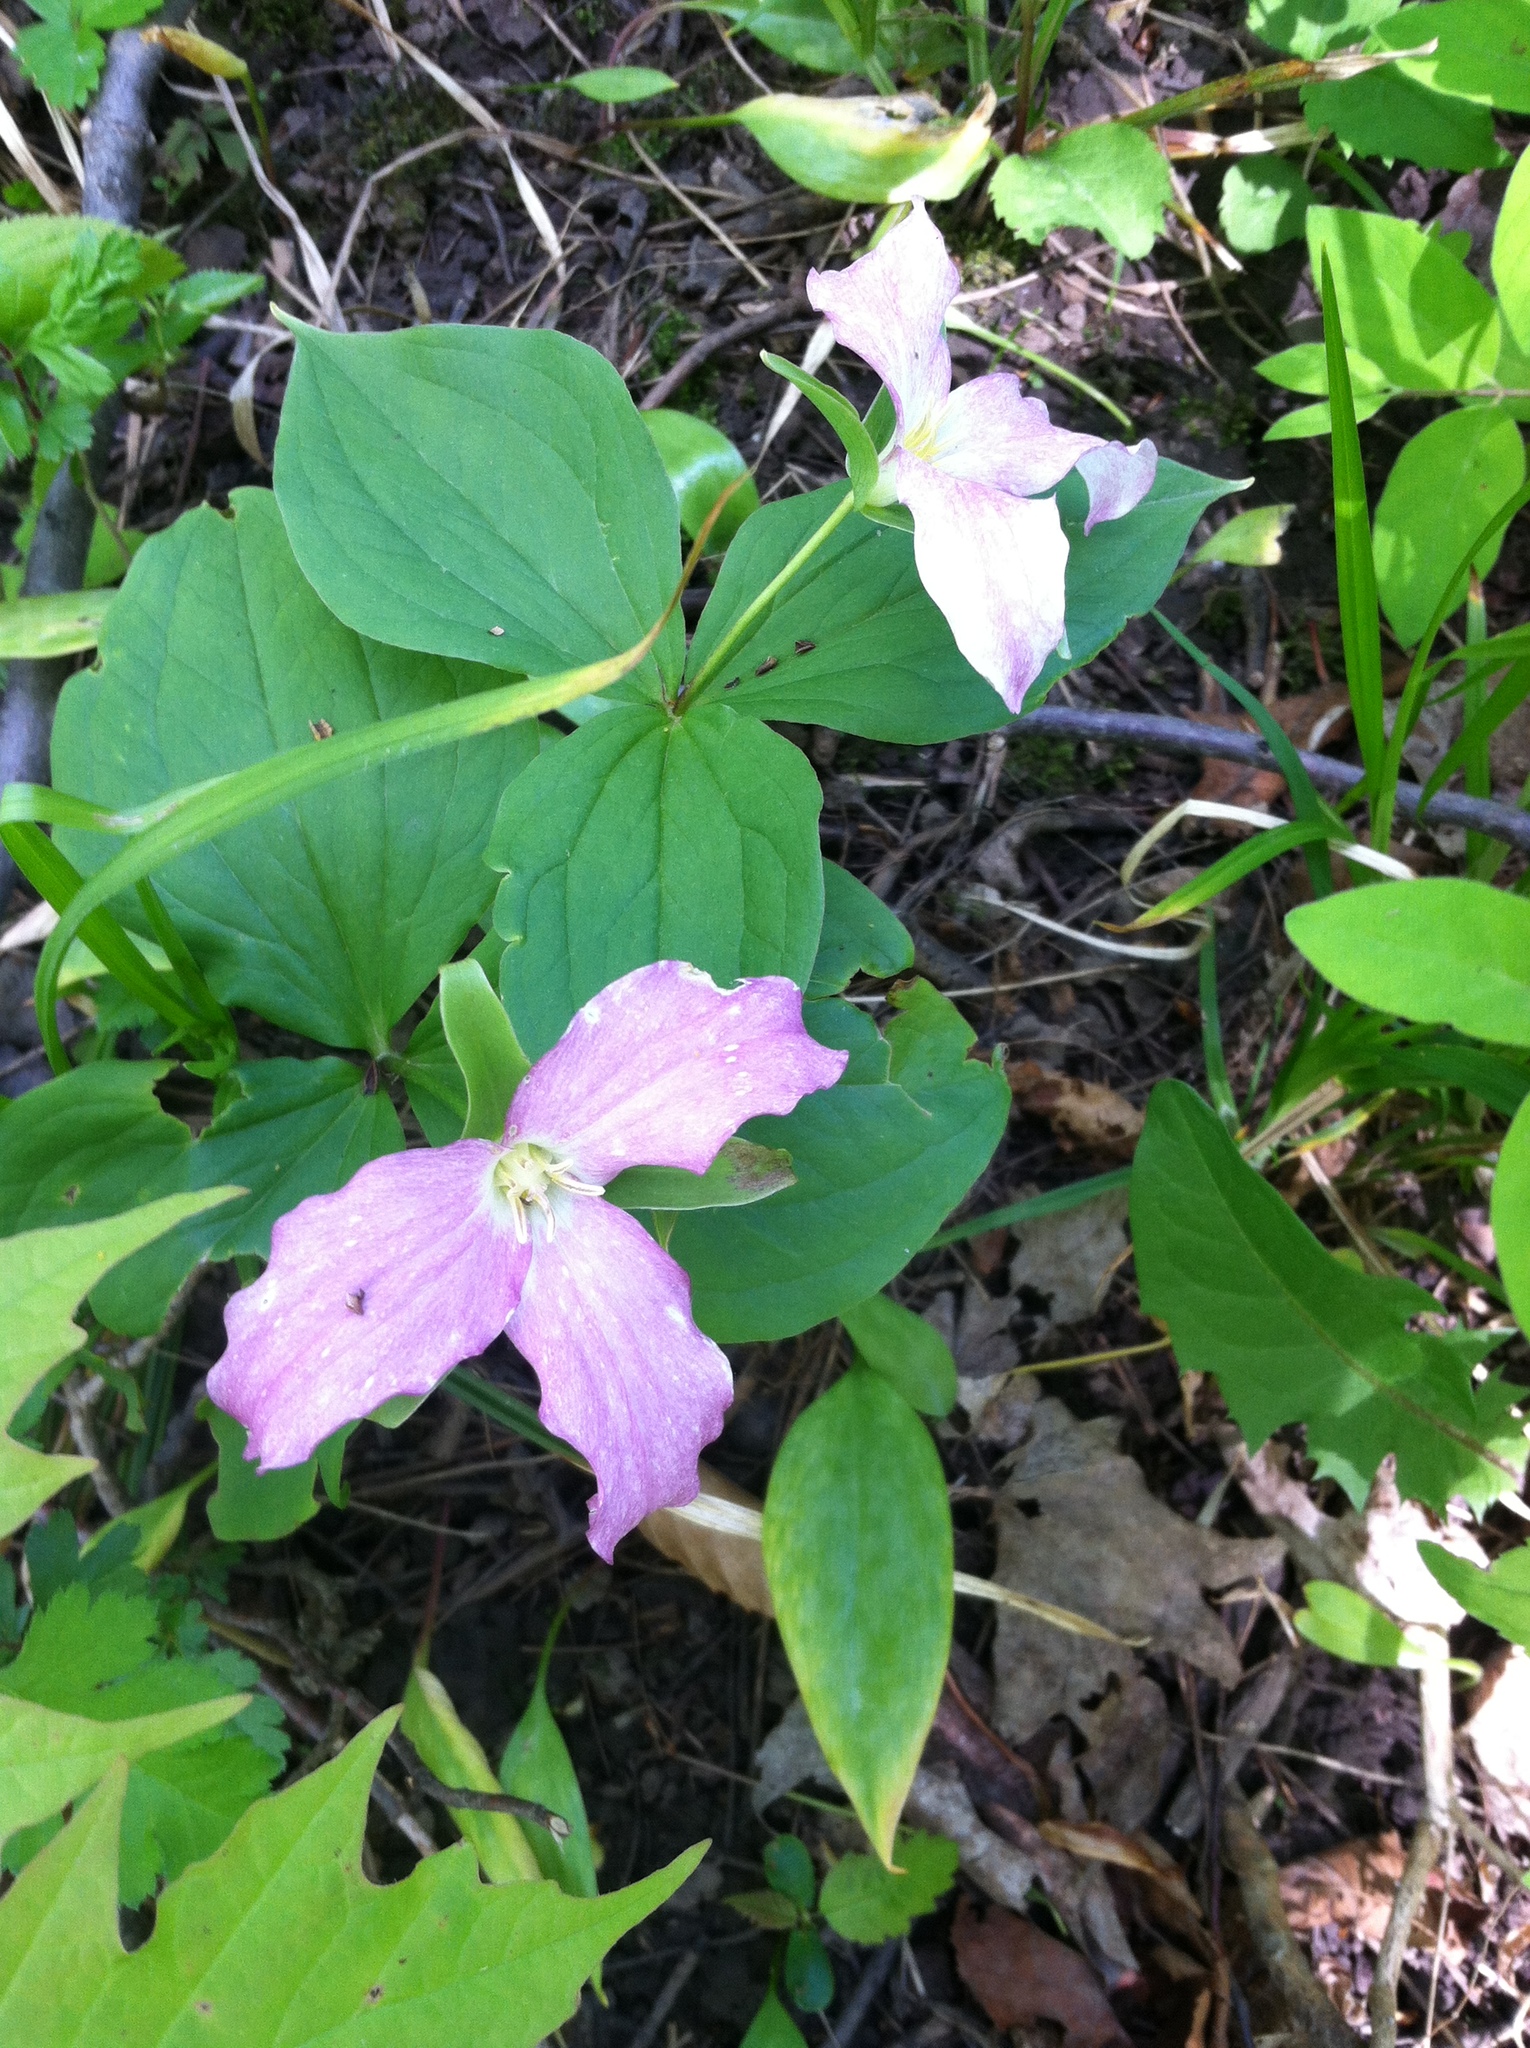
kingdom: Plantae
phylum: Tracheophyta
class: Liliopsida
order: Liliales
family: Melanthiaceae
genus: Trillium
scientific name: Trillium grandiflorum
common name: Great white trillium
